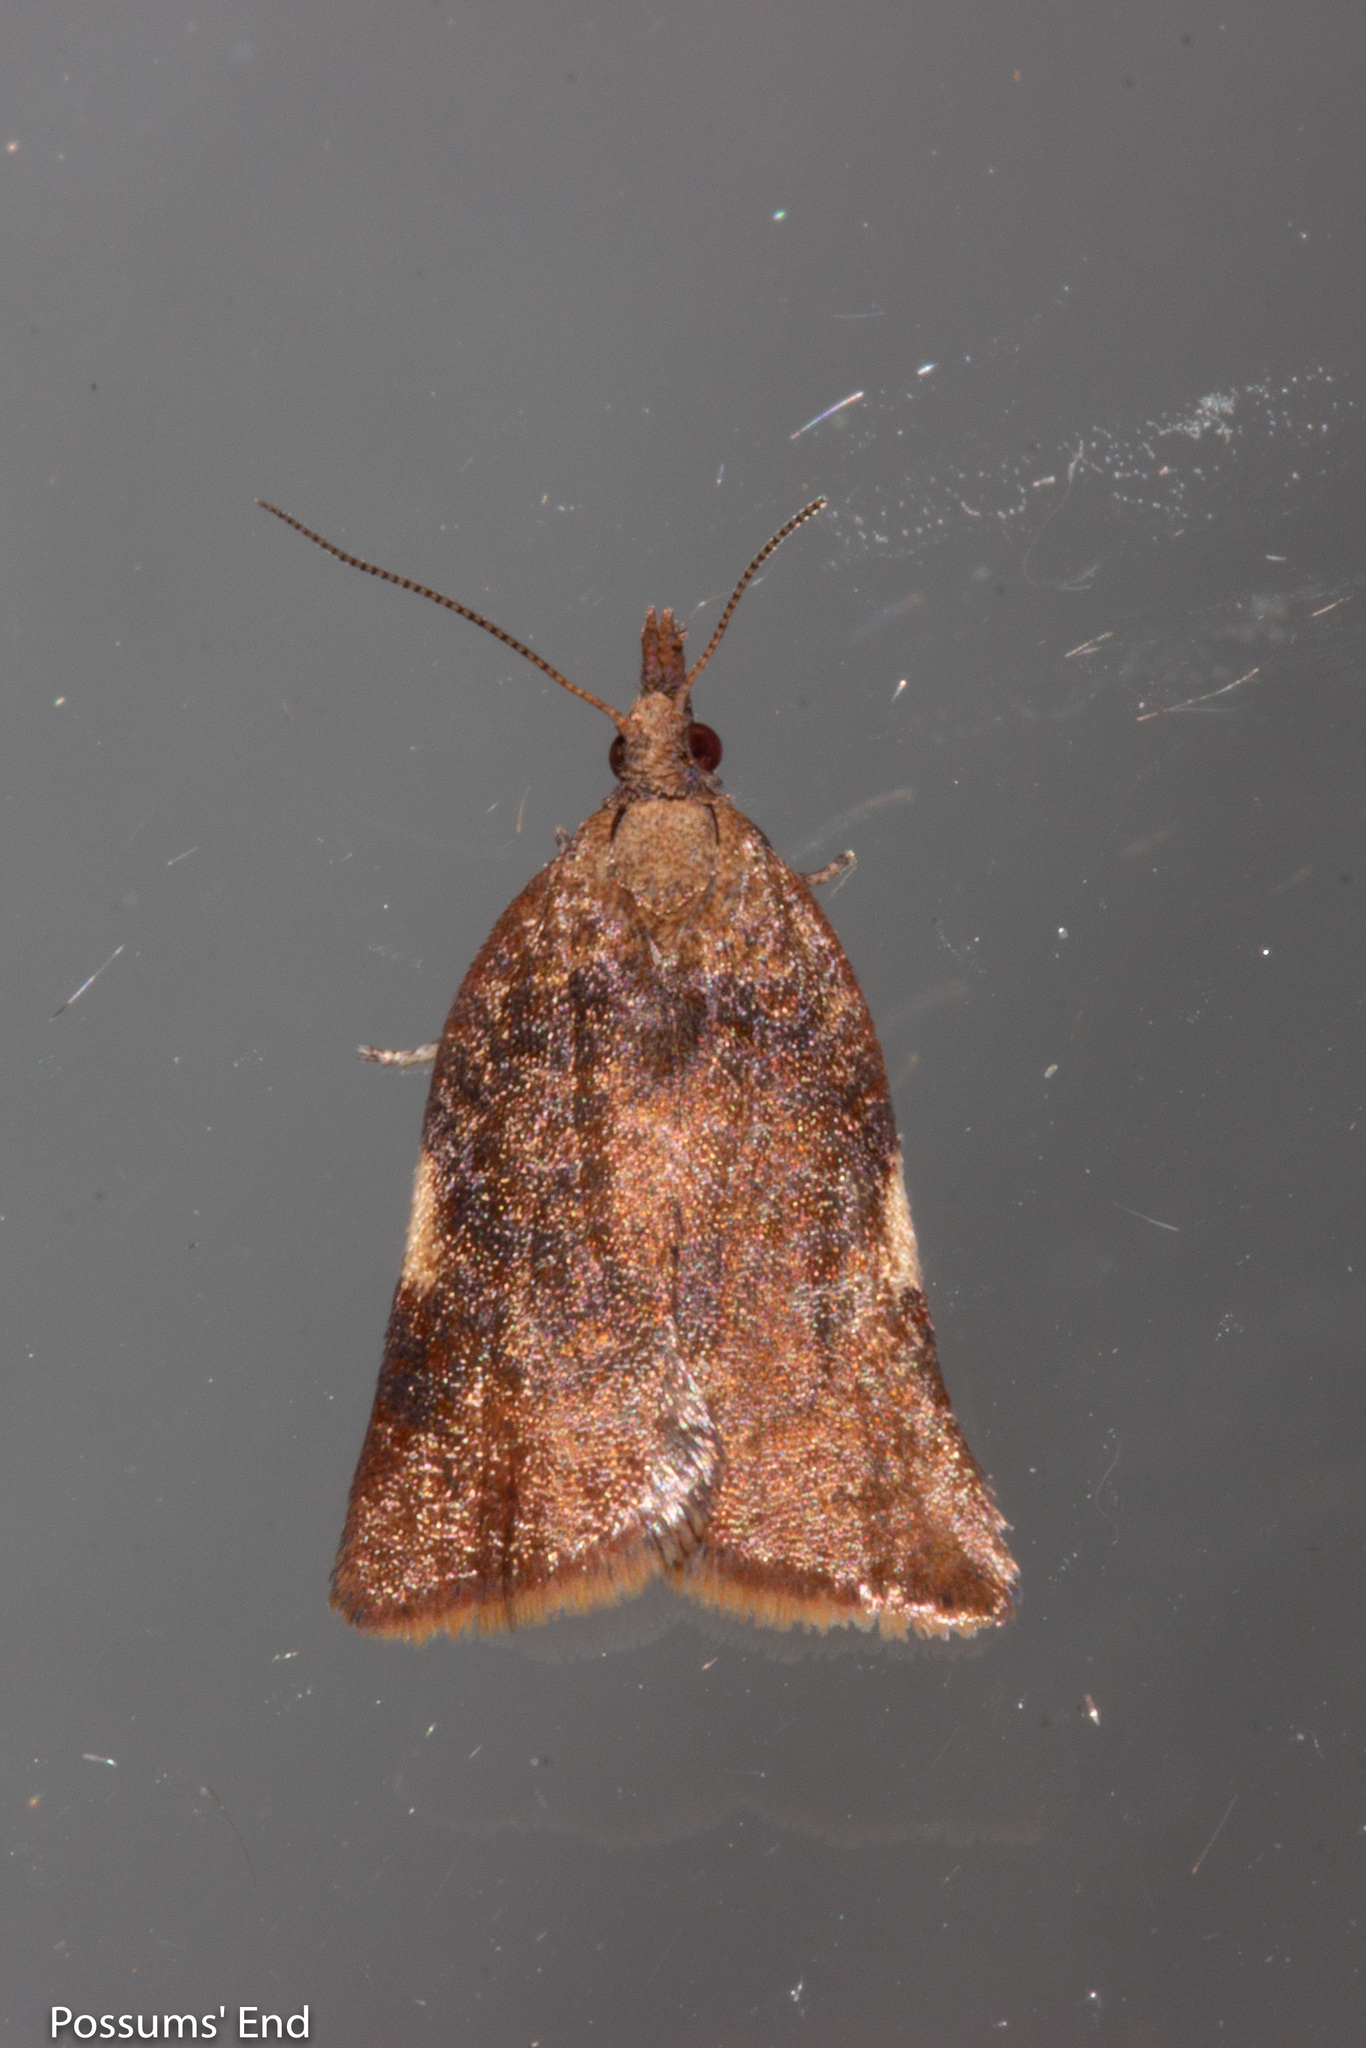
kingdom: Animalia
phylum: Arthropoda
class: Insecta
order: Lepidoptera
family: Tortricidae
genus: Catamacta
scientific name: Catamacta gavisana
